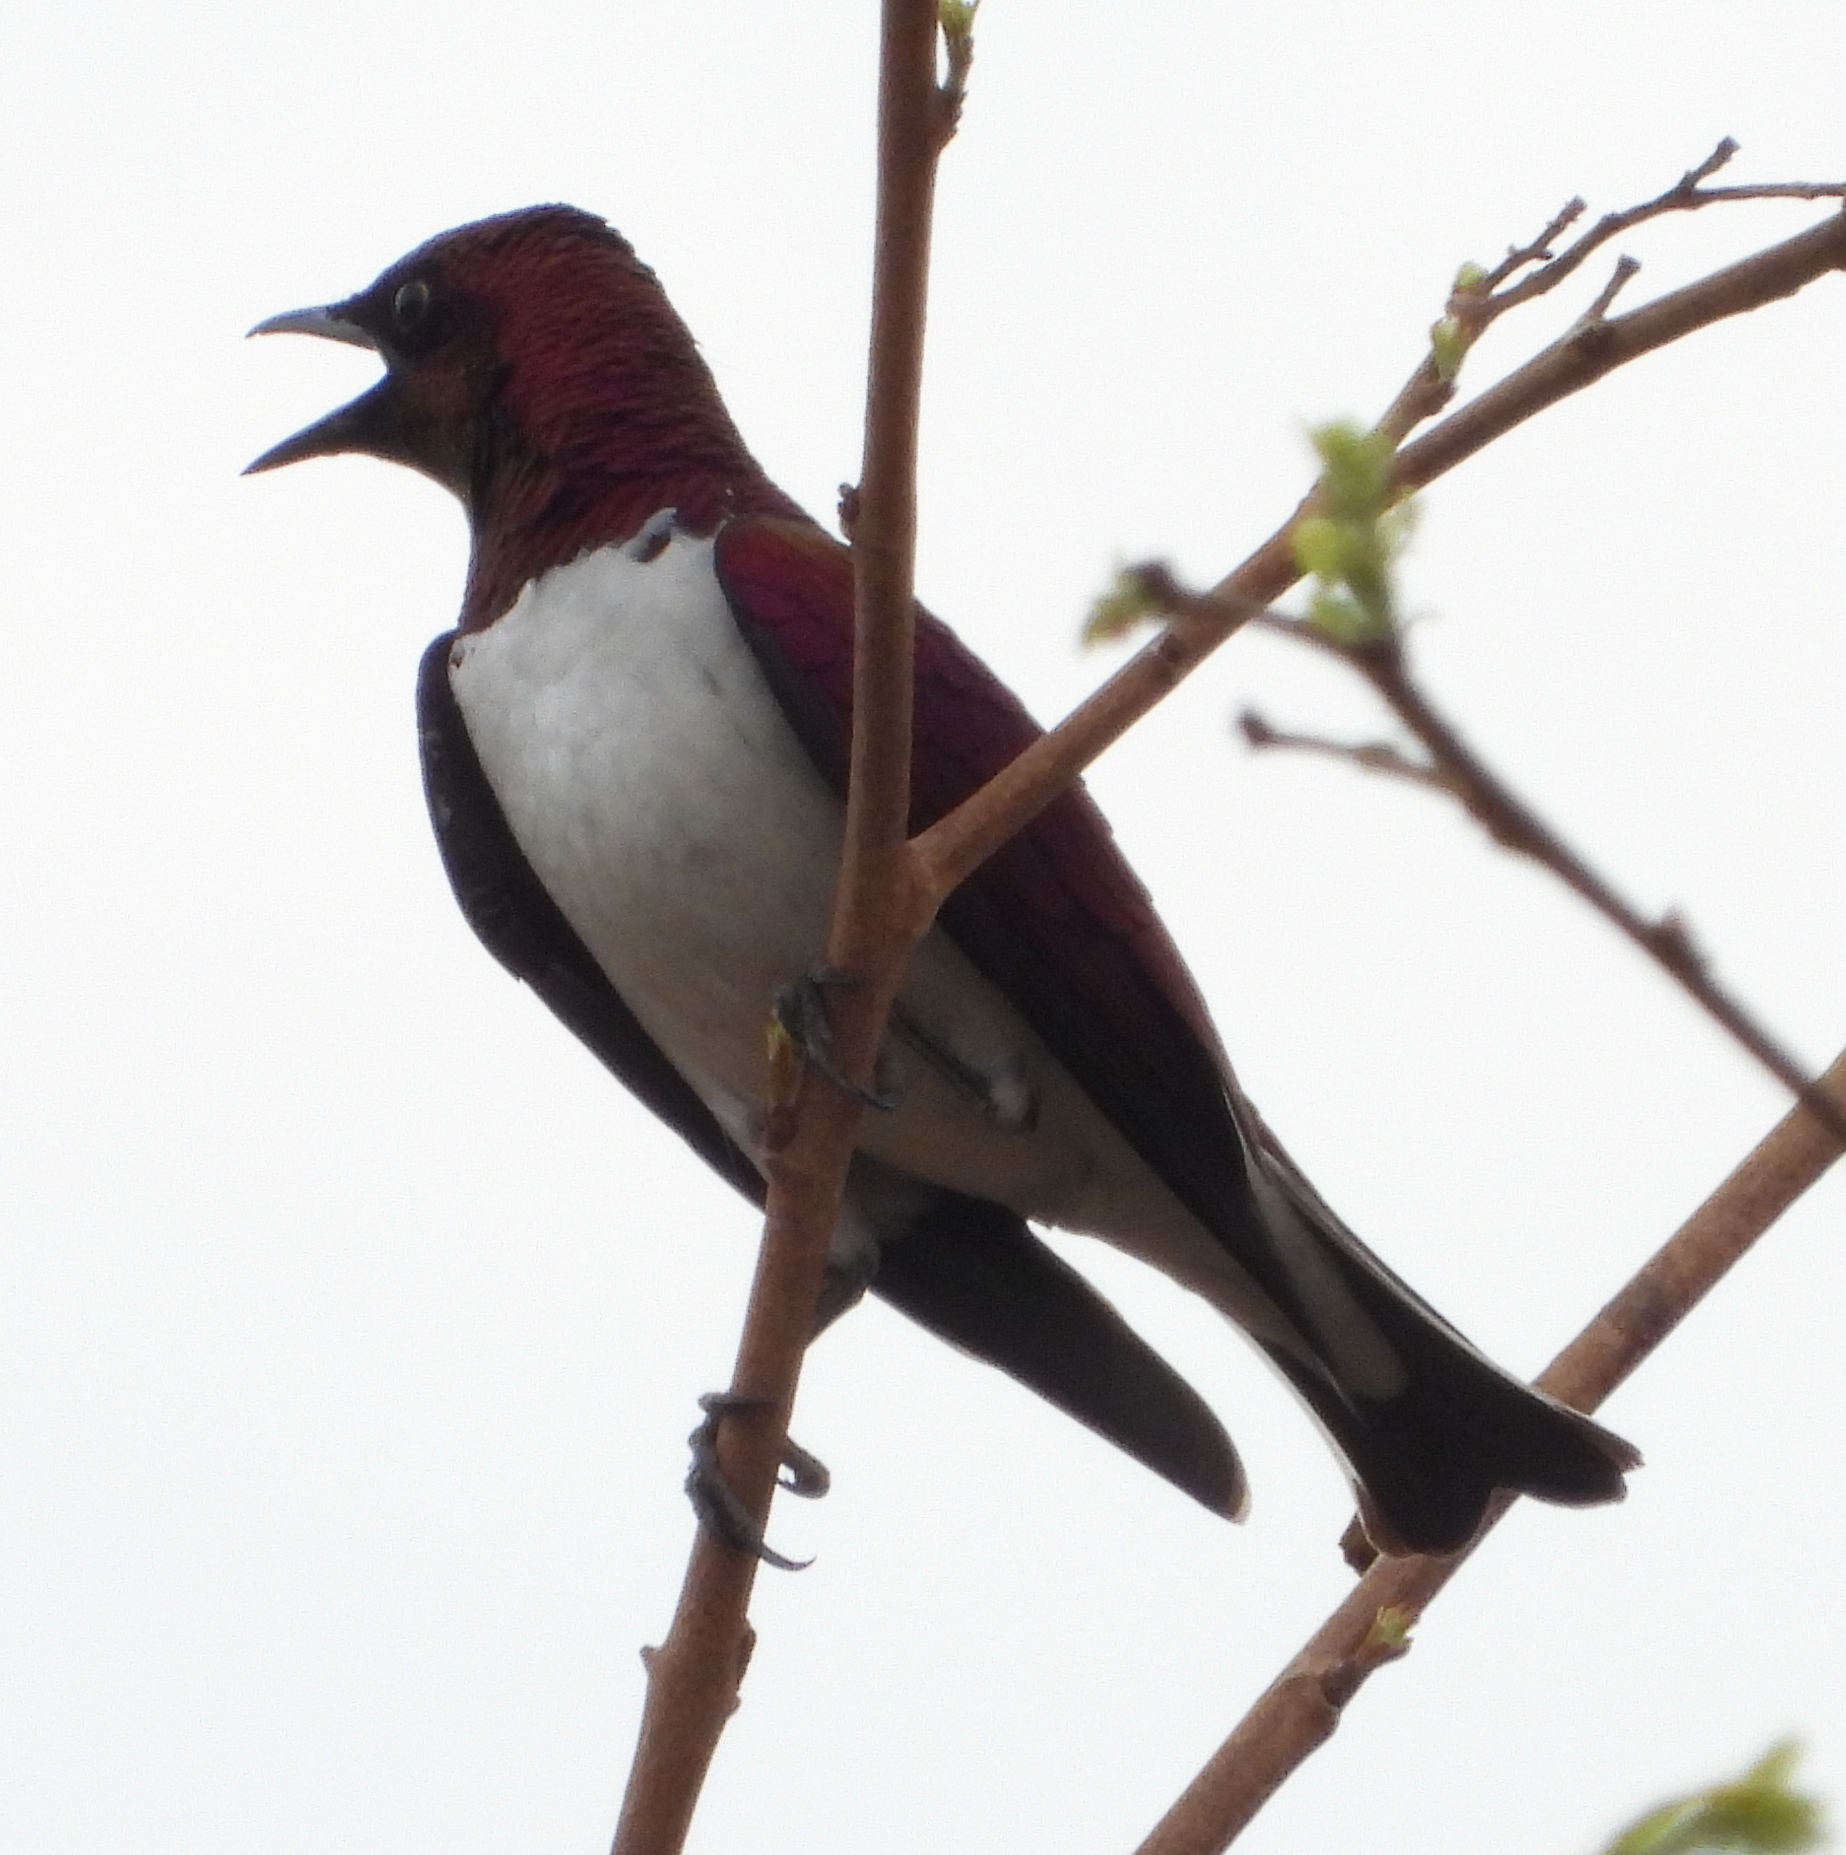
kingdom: Animalia
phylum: Chordata
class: Aves
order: Passeriformes
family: Sturnidae
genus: Cinnyricinclus
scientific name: Cinnyricinclus leucogaster
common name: Violet-backed starling
